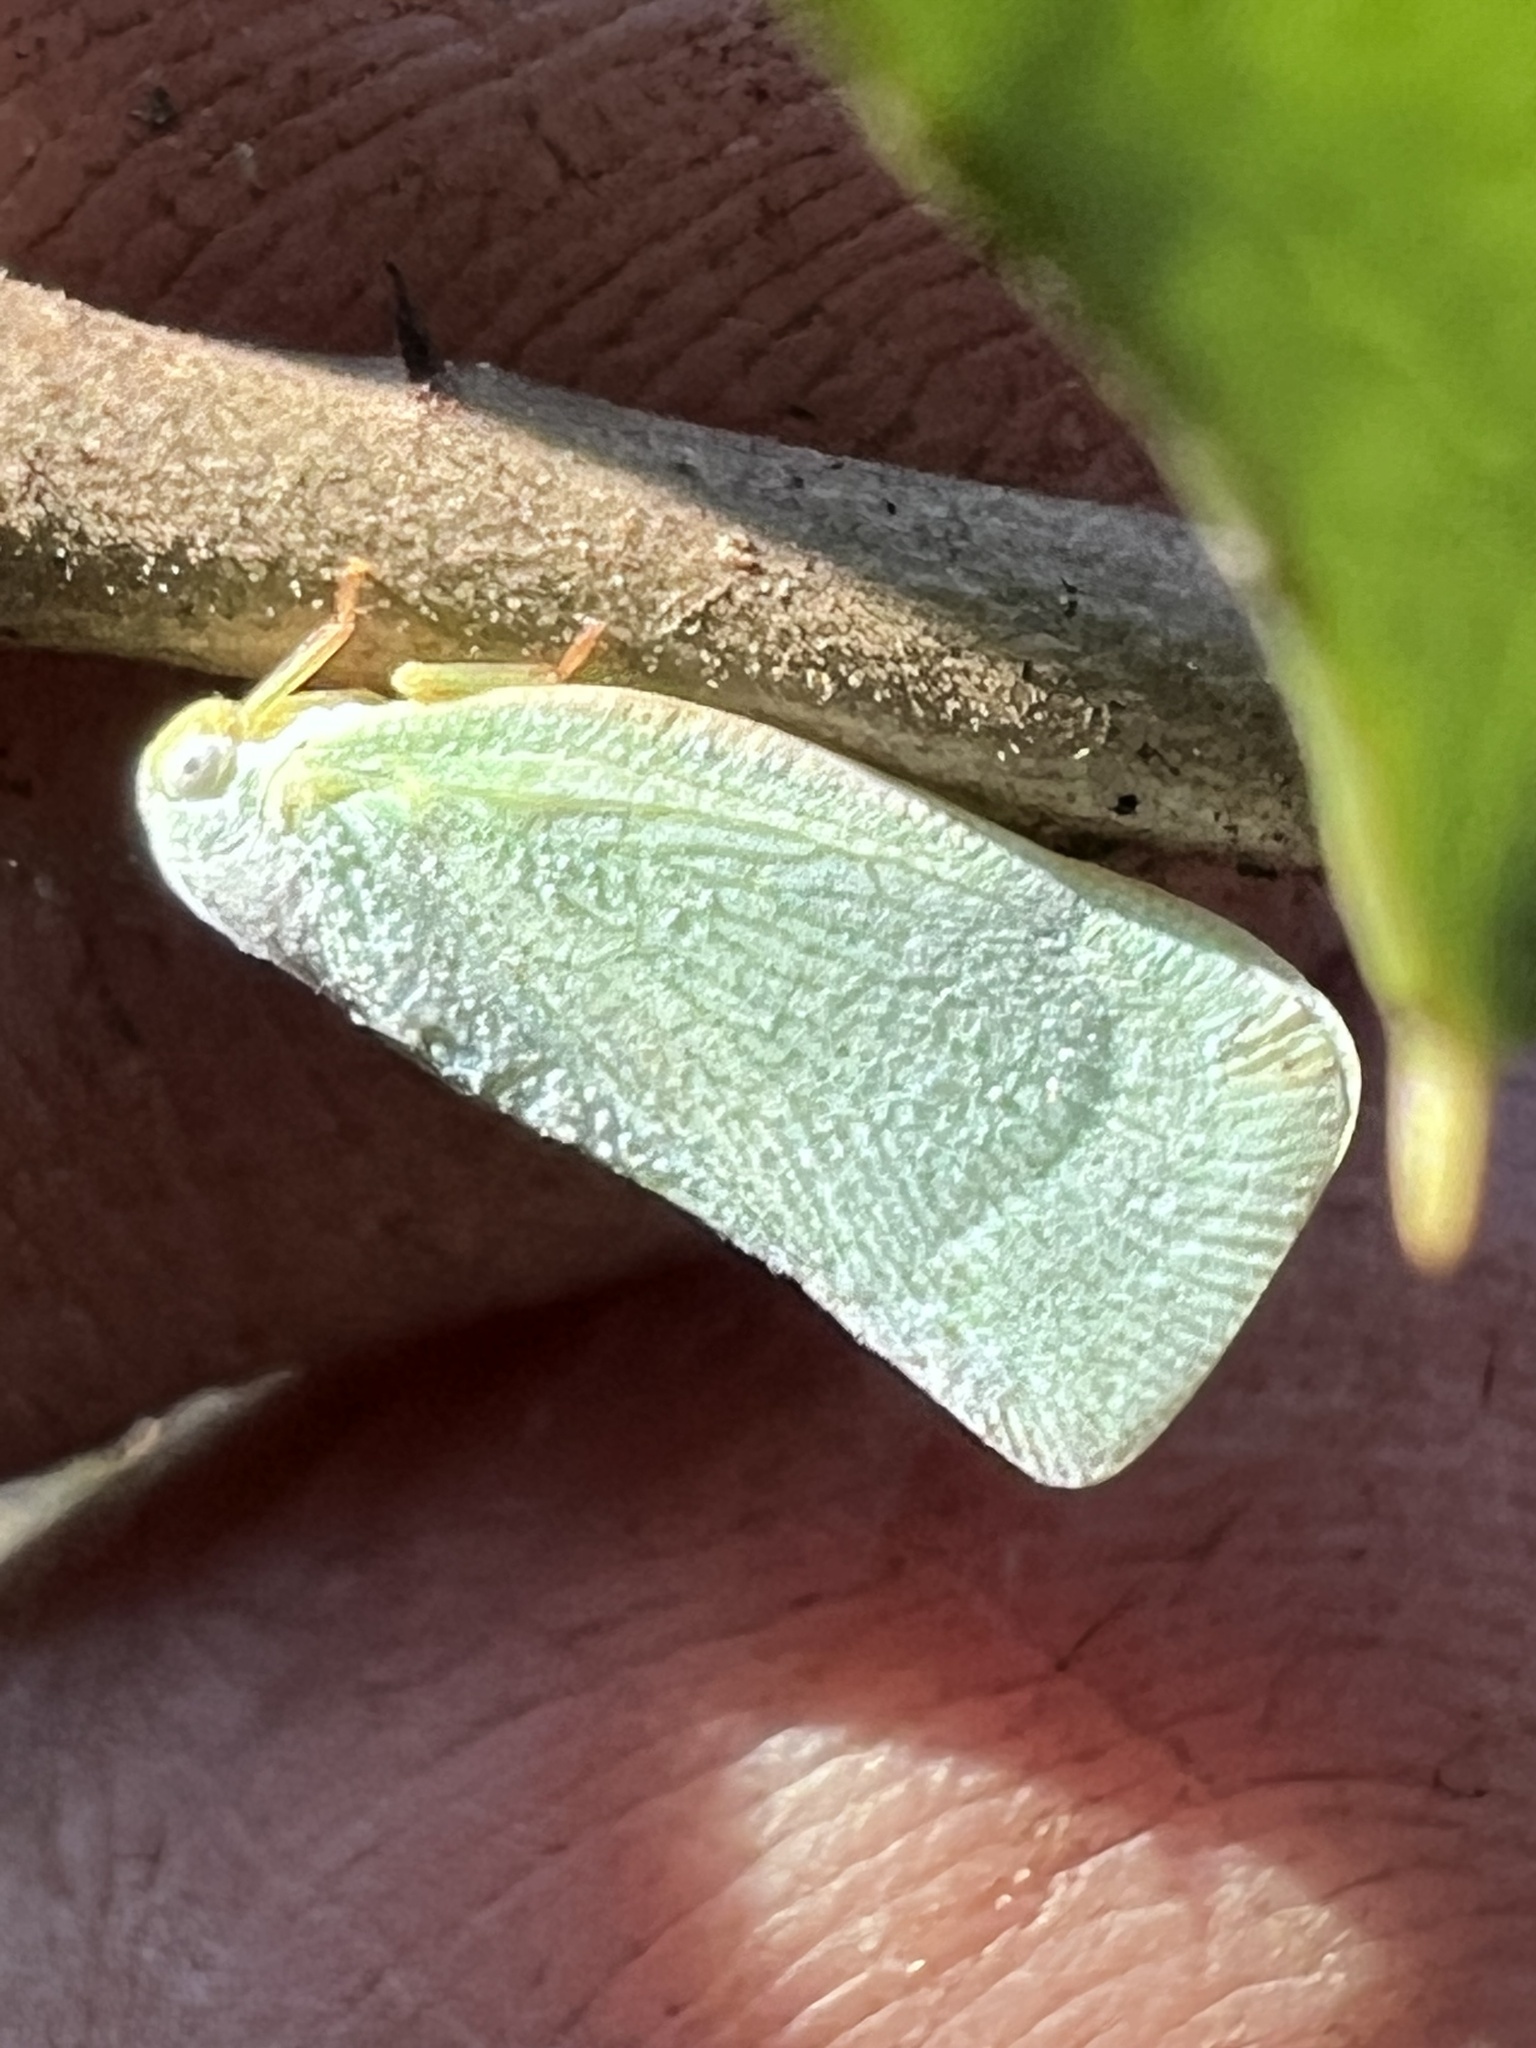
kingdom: Animalia
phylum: Arthropoda
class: Insecta
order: Hemiptera
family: Flatidae
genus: Flatormenis
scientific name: Flatormenis proxima
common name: Northern flatid planthopper
